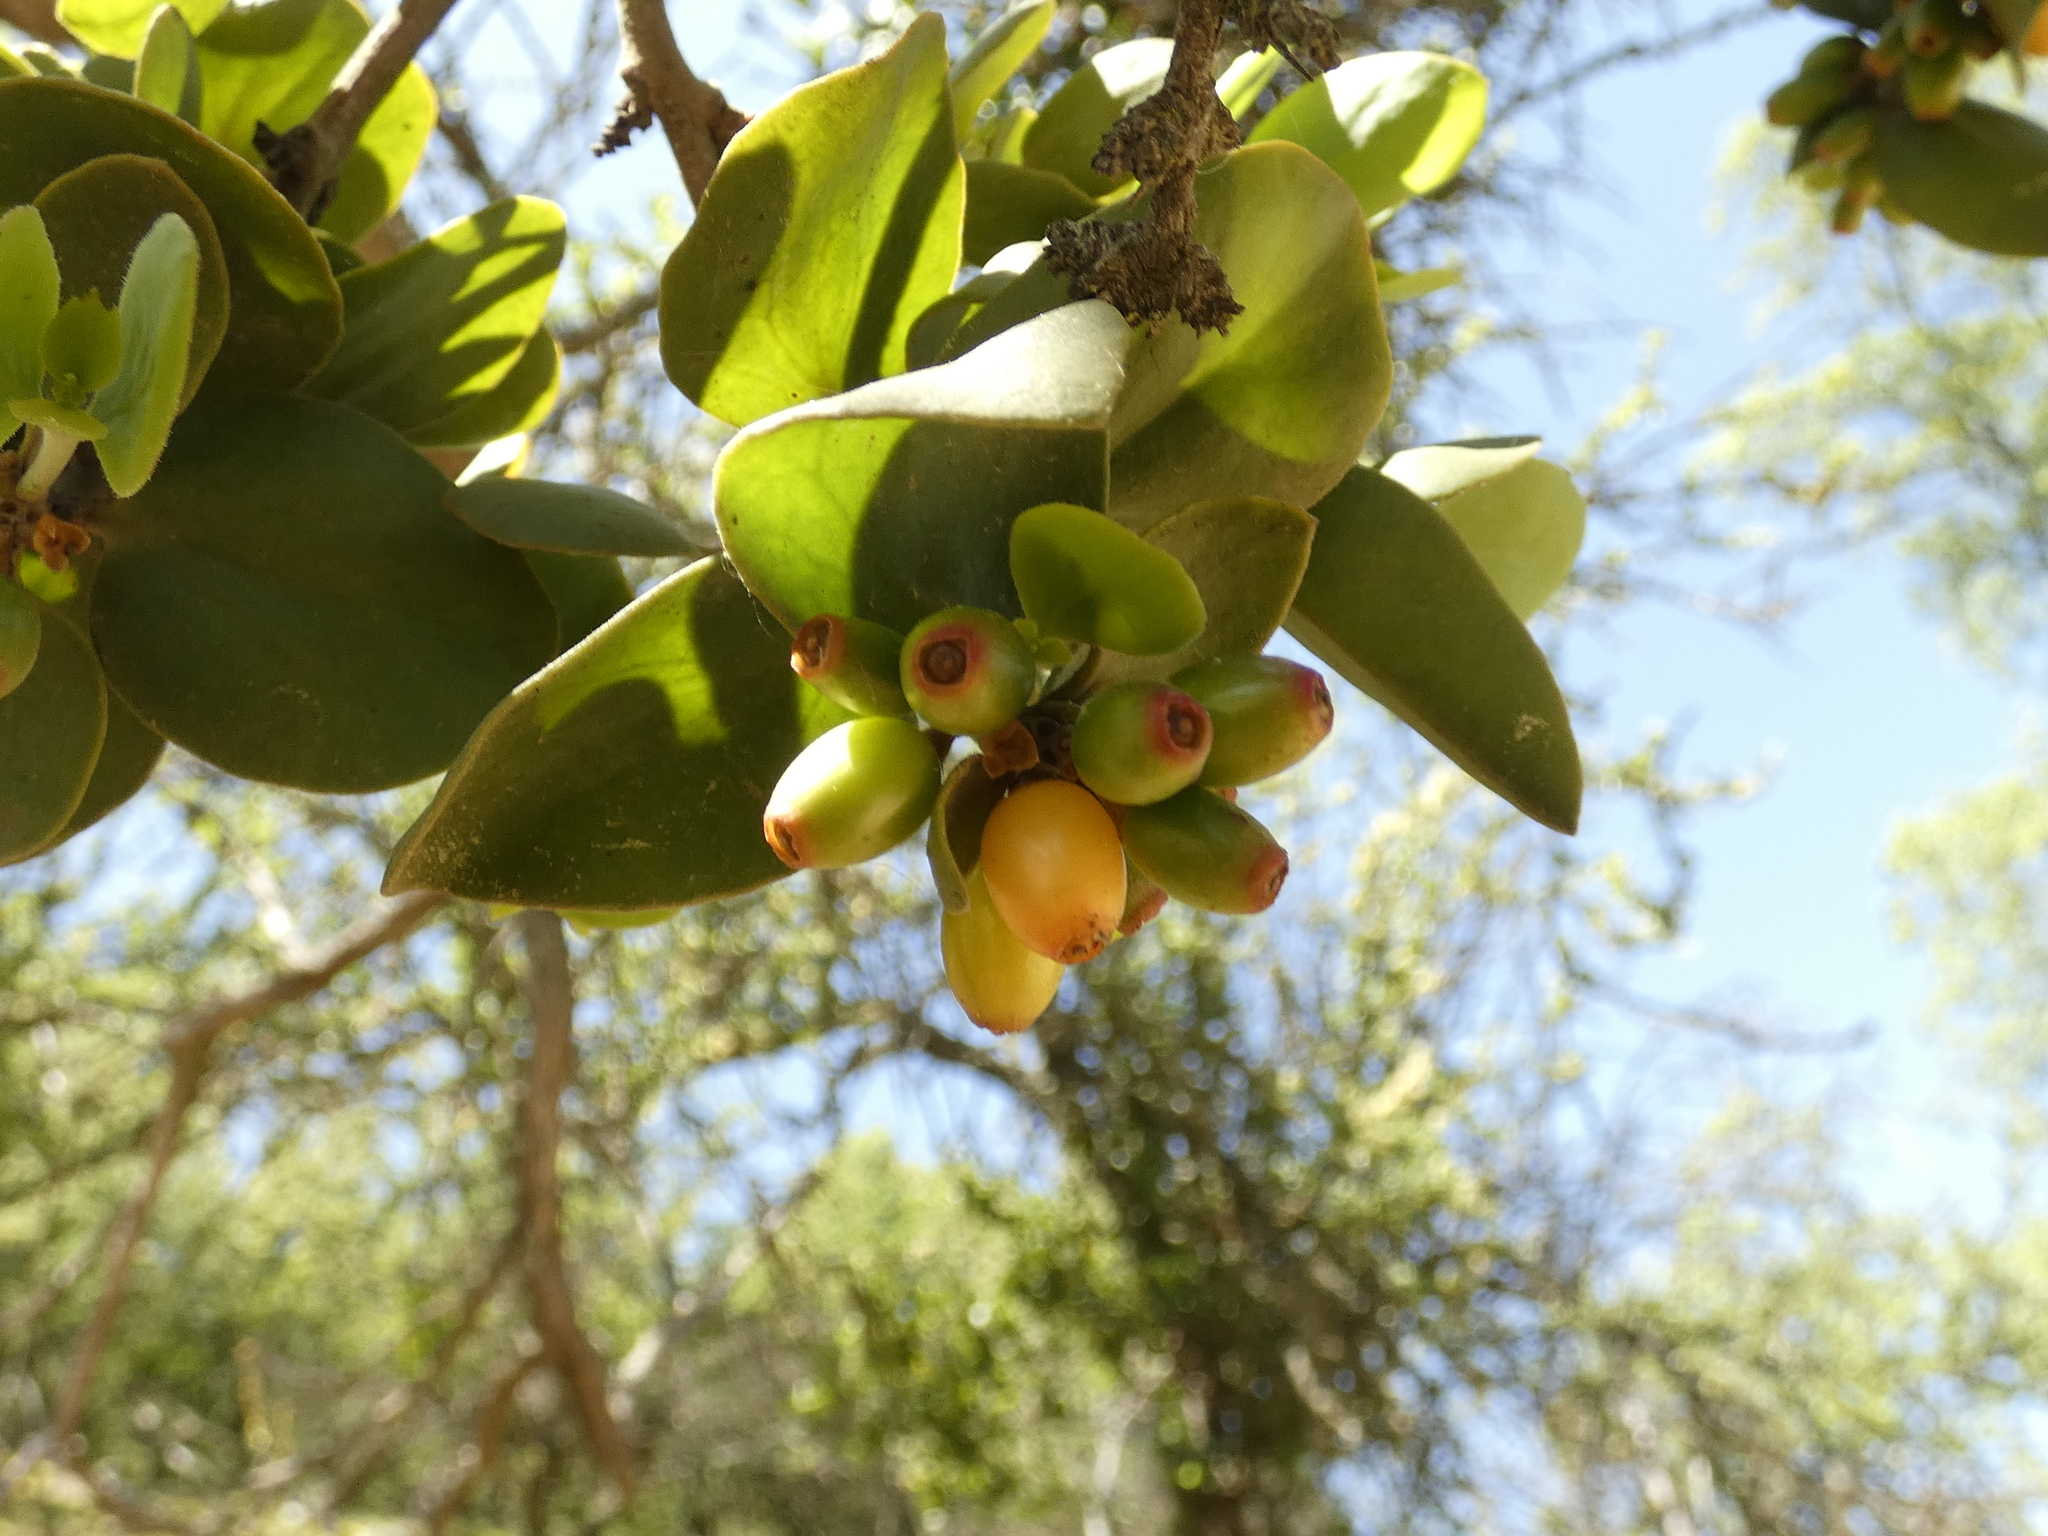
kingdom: Plantae
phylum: Tracheophyta
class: Magnoliopsida
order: Santalales
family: Loranthaceae
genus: Tristerix
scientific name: Tristerix corymbosus
